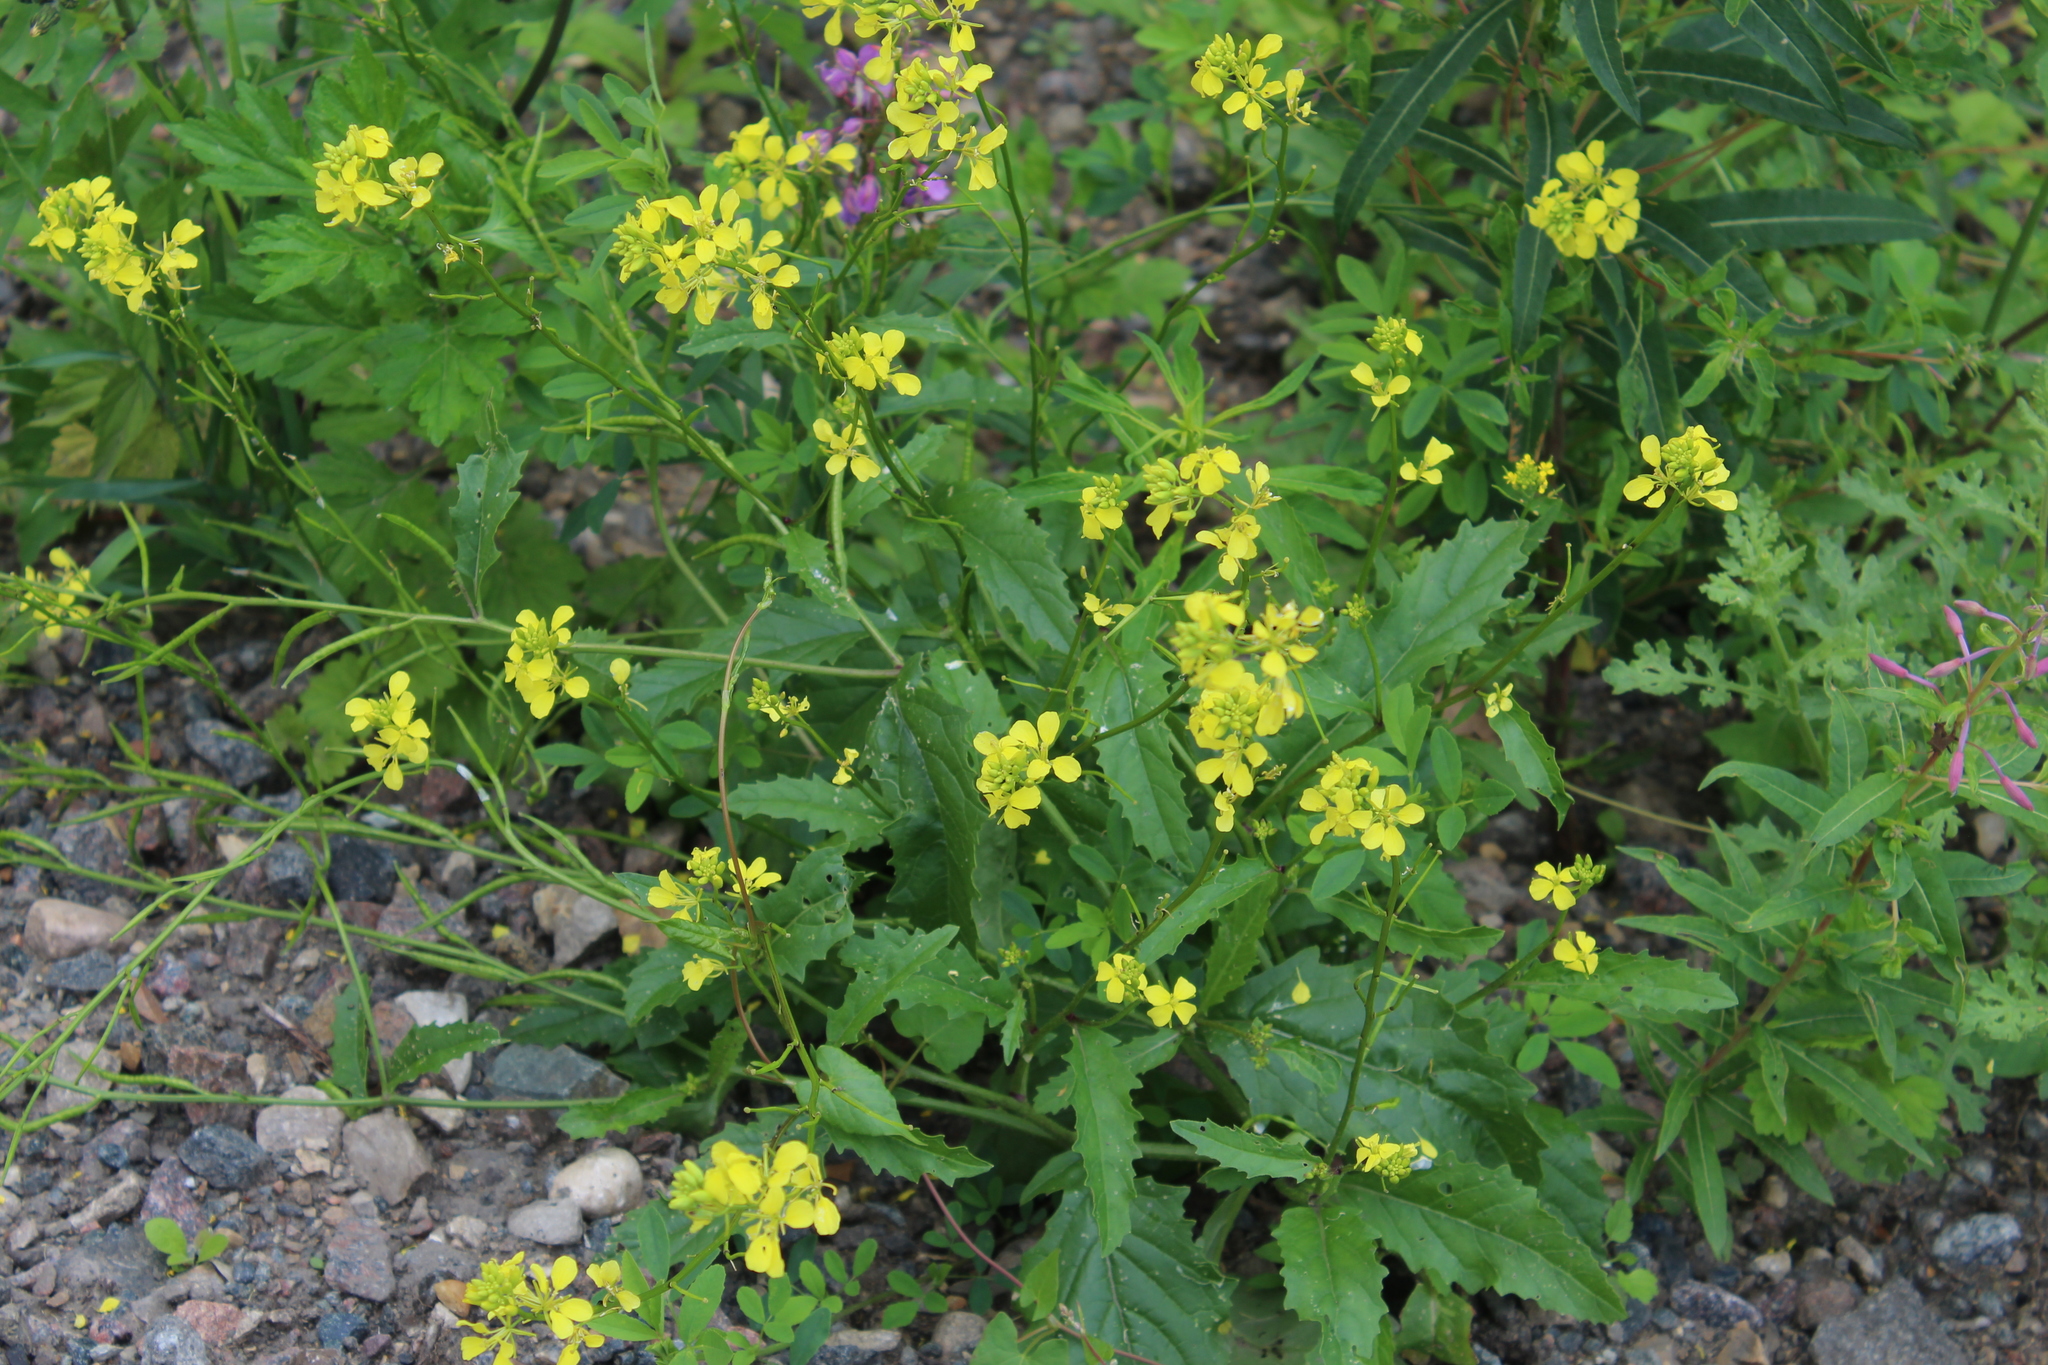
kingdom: Plantae
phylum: Tracheophyta
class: Magnoliopsida
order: Brassicales
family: Brassicaceae
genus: Sinapis
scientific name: Sinapis arvensis
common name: Charlock
